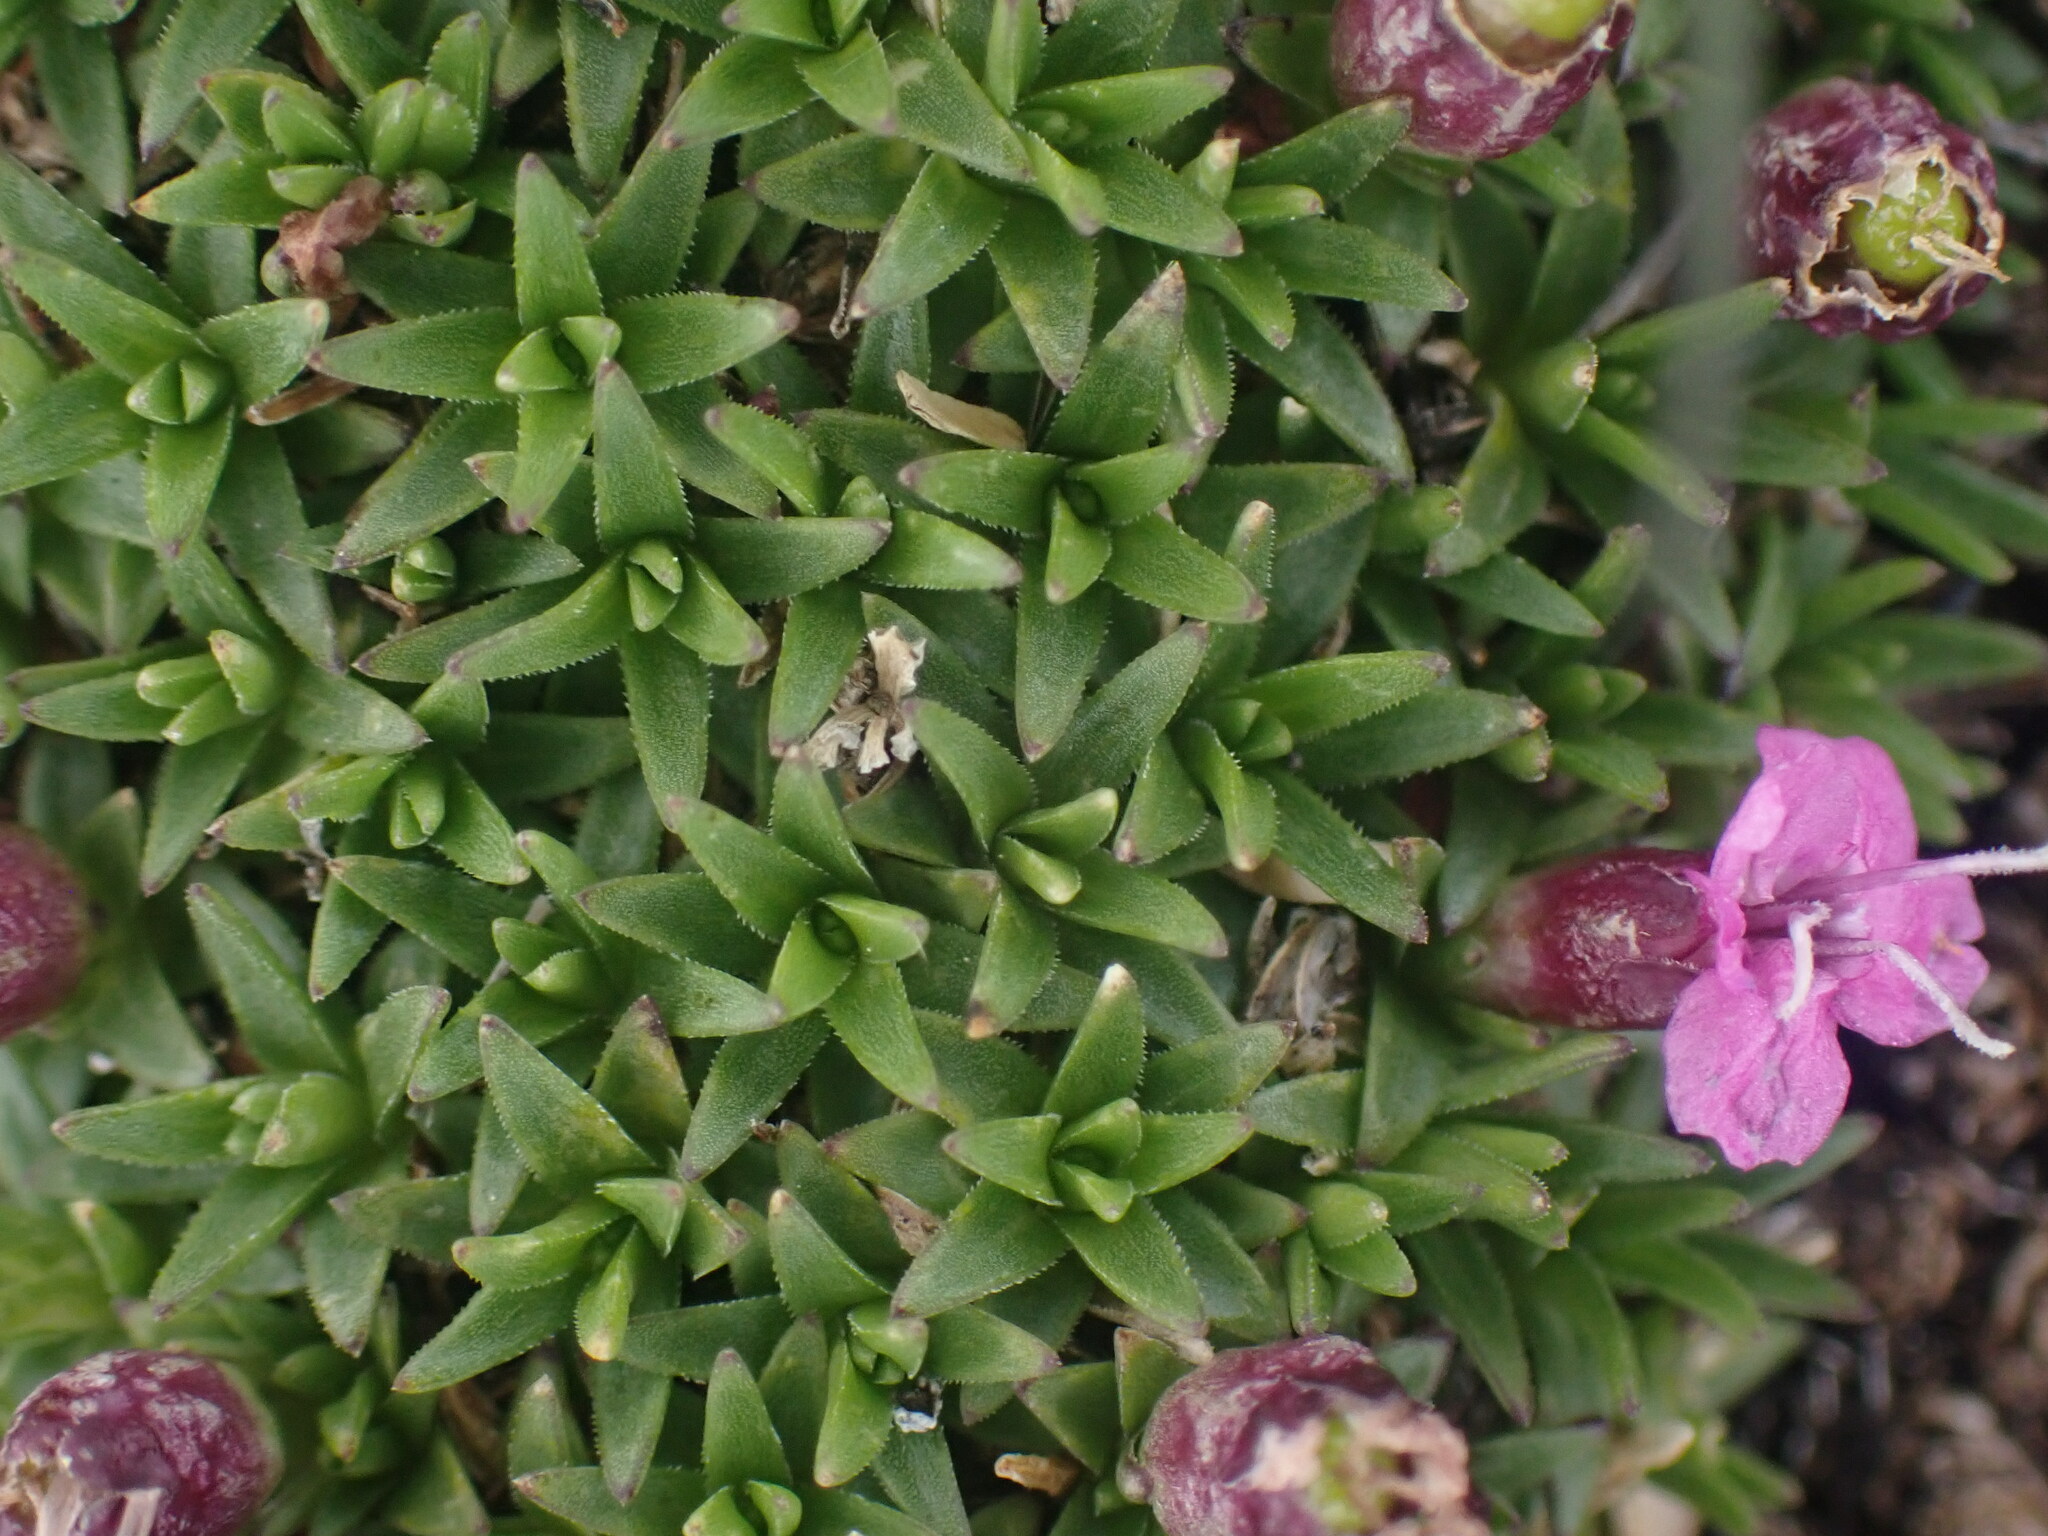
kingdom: Plantae
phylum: Tracheophyta
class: Magnoliopsida
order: Caryophyllales
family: Caryophyllaceae
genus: Silene
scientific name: Silene acaulis
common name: Moss campion
